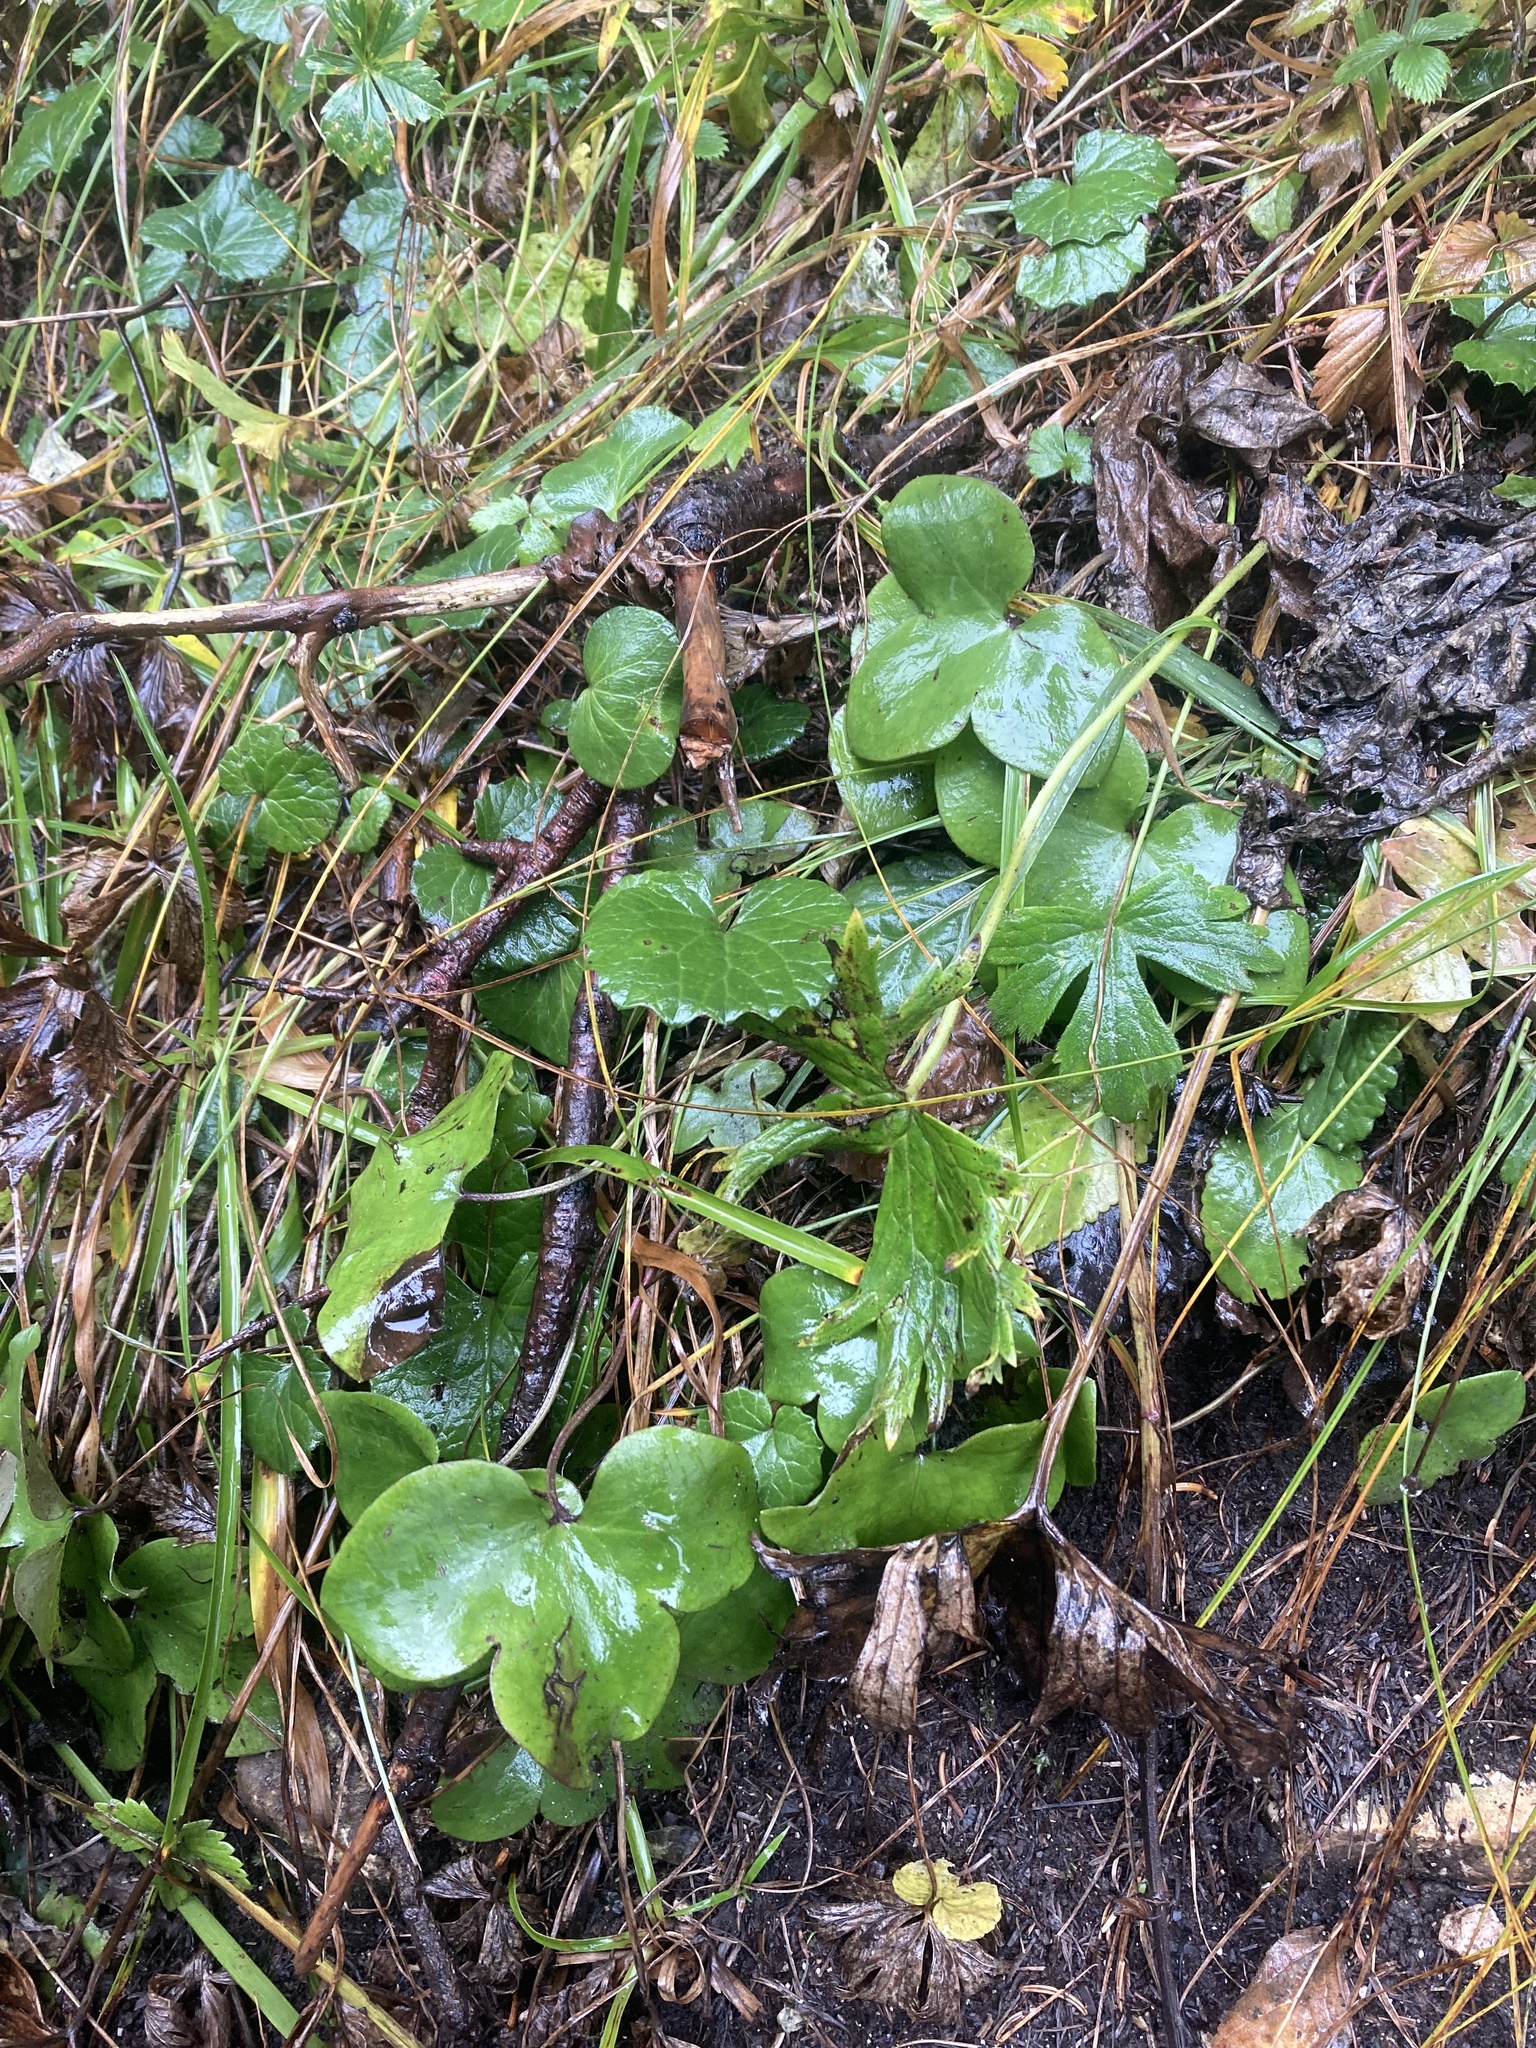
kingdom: Plantae
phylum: Tracheophyta
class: Magnoliopsida
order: Ranunculales
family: Ranunculaceae
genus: Hepatica
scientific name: Hepatica nobilis
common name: Liverleaf
